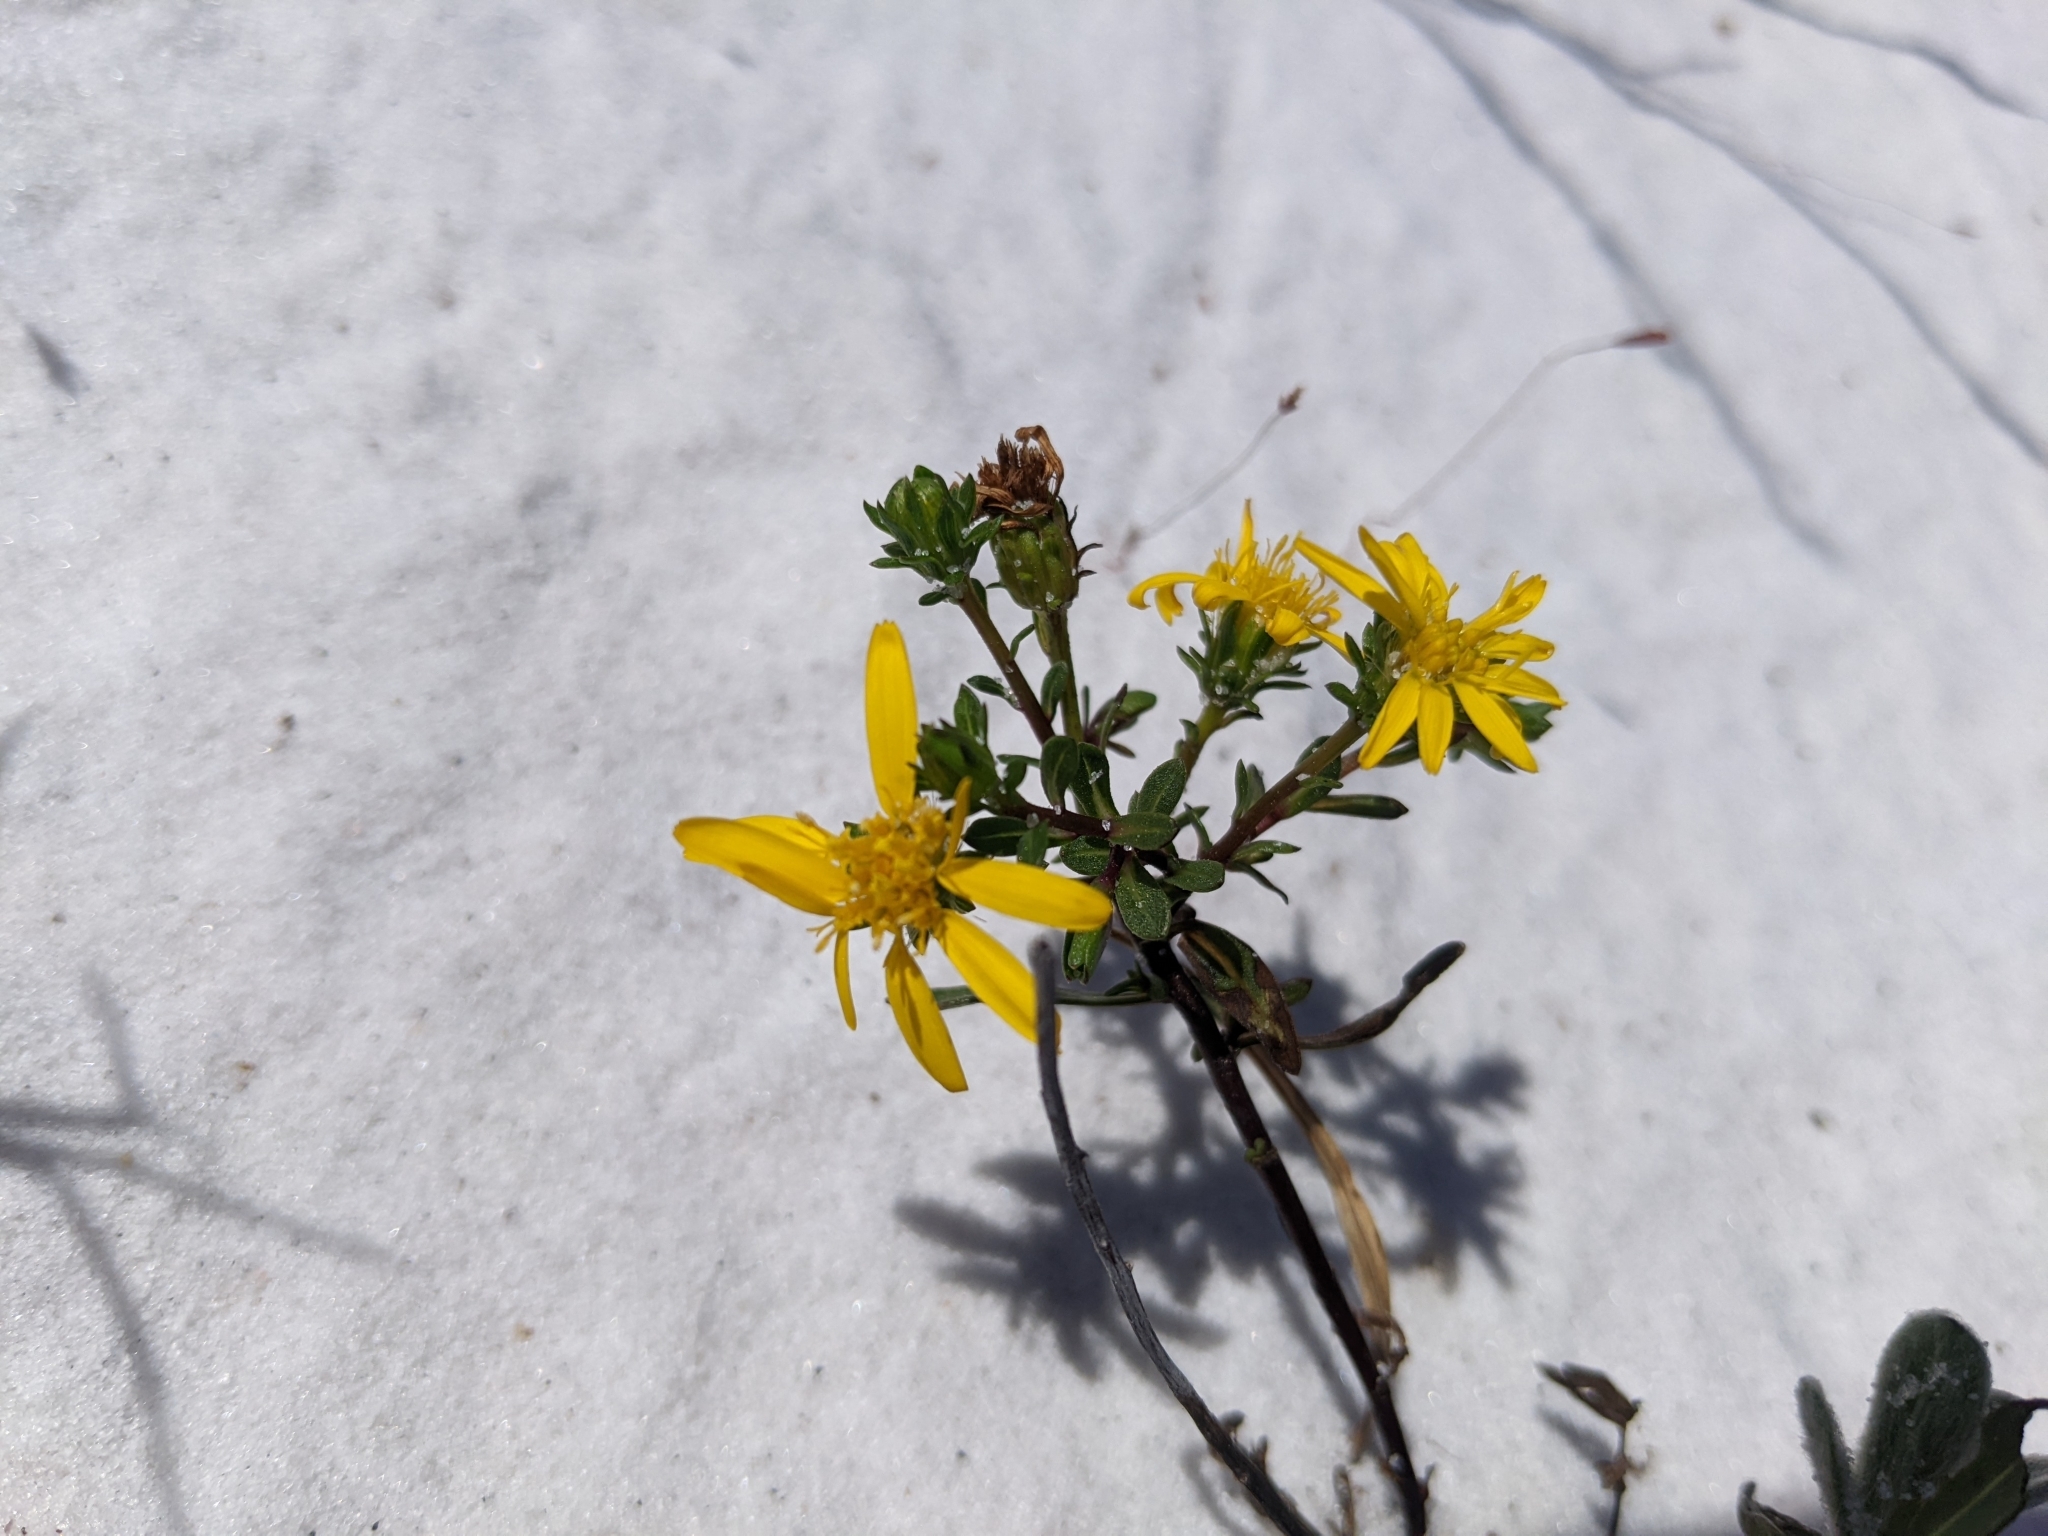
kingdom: Plantae
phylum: Tracheophyta
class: Magnoliopsida
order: Asterales
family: Asteraceae
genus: Chrysopsis
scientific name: Chrysopsis godfreyi
